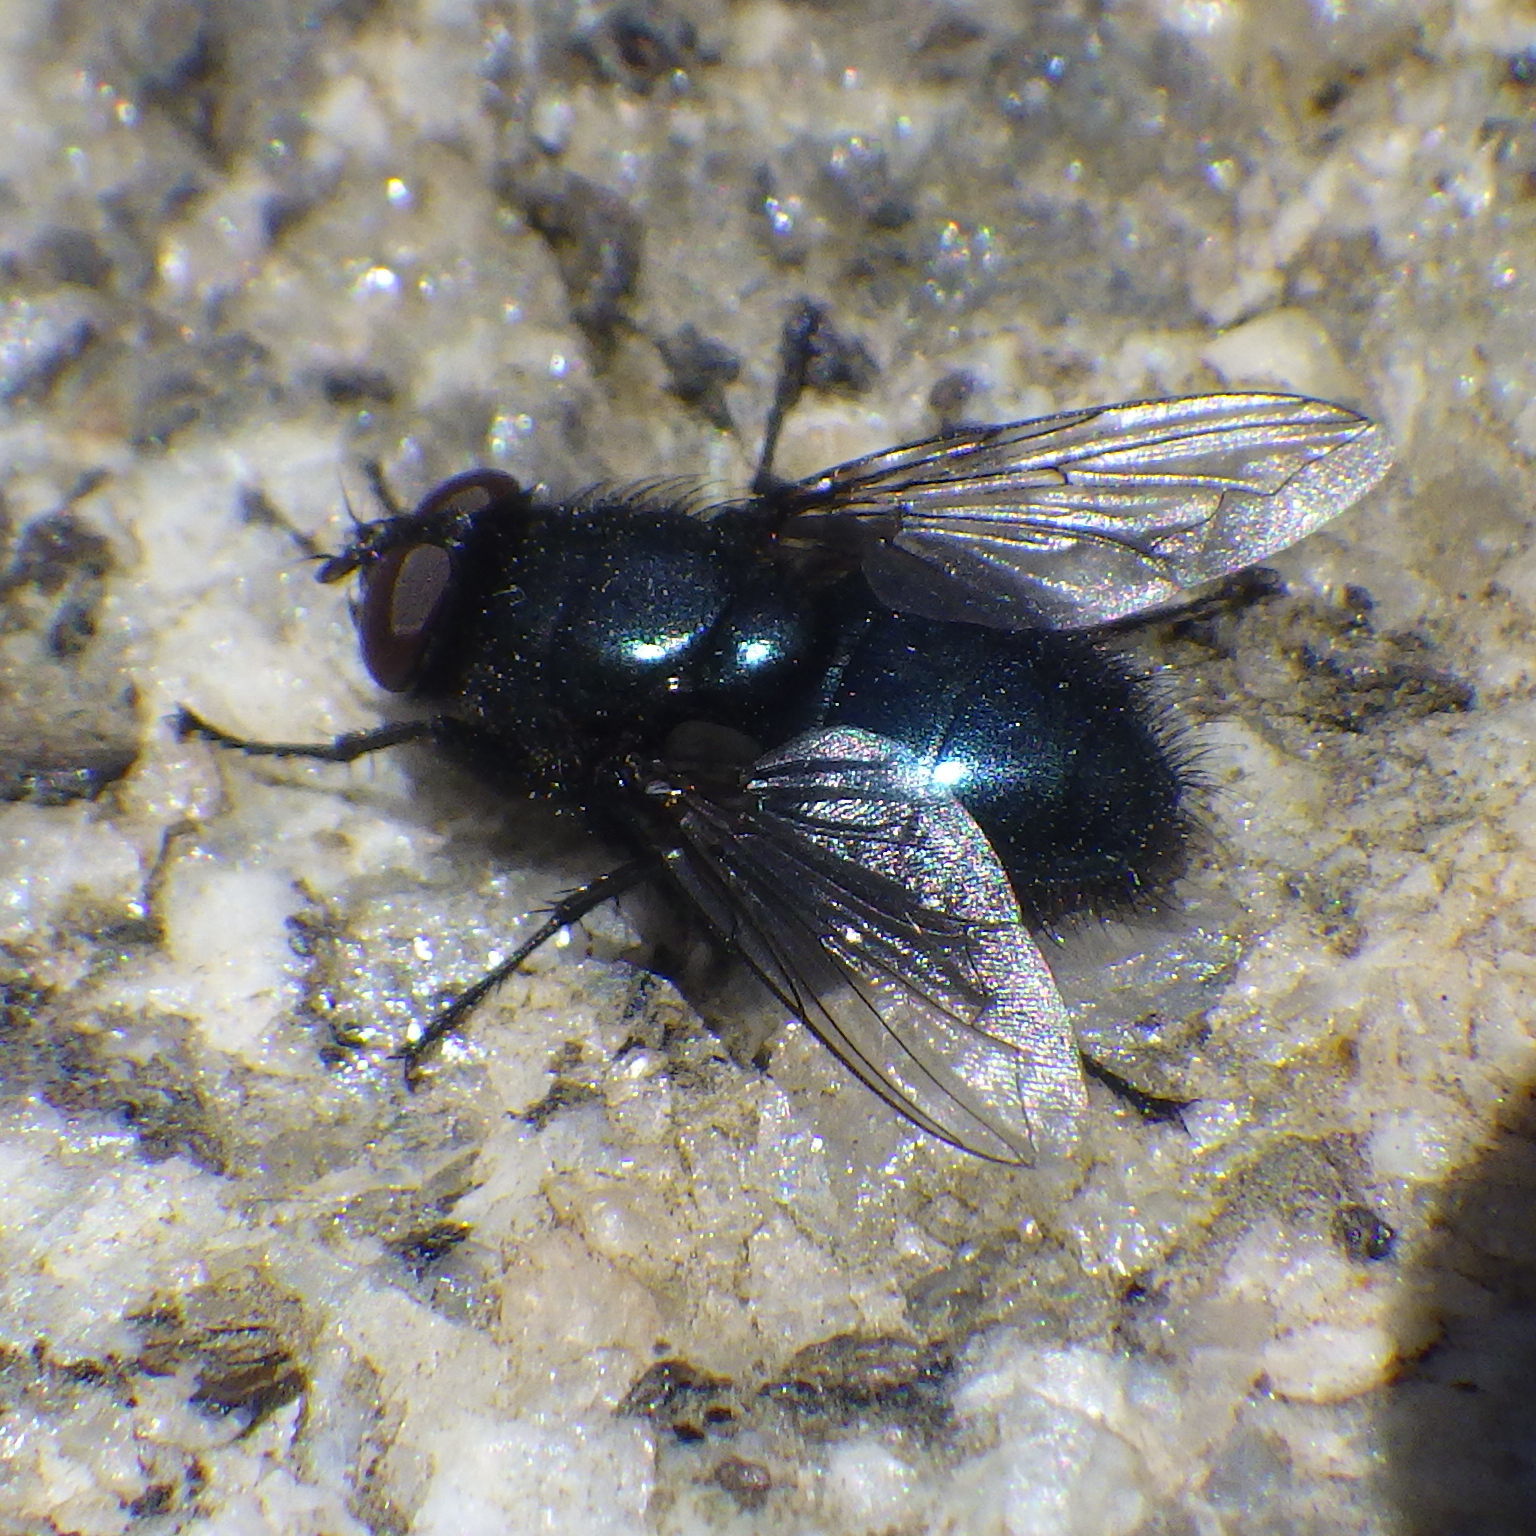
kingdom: Animalia
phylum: Arthropoda
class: Insecta
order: Diptera
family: Calliphoridae
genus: Protophormia
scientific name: Protophormia terraenovae
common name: Blackbottle
